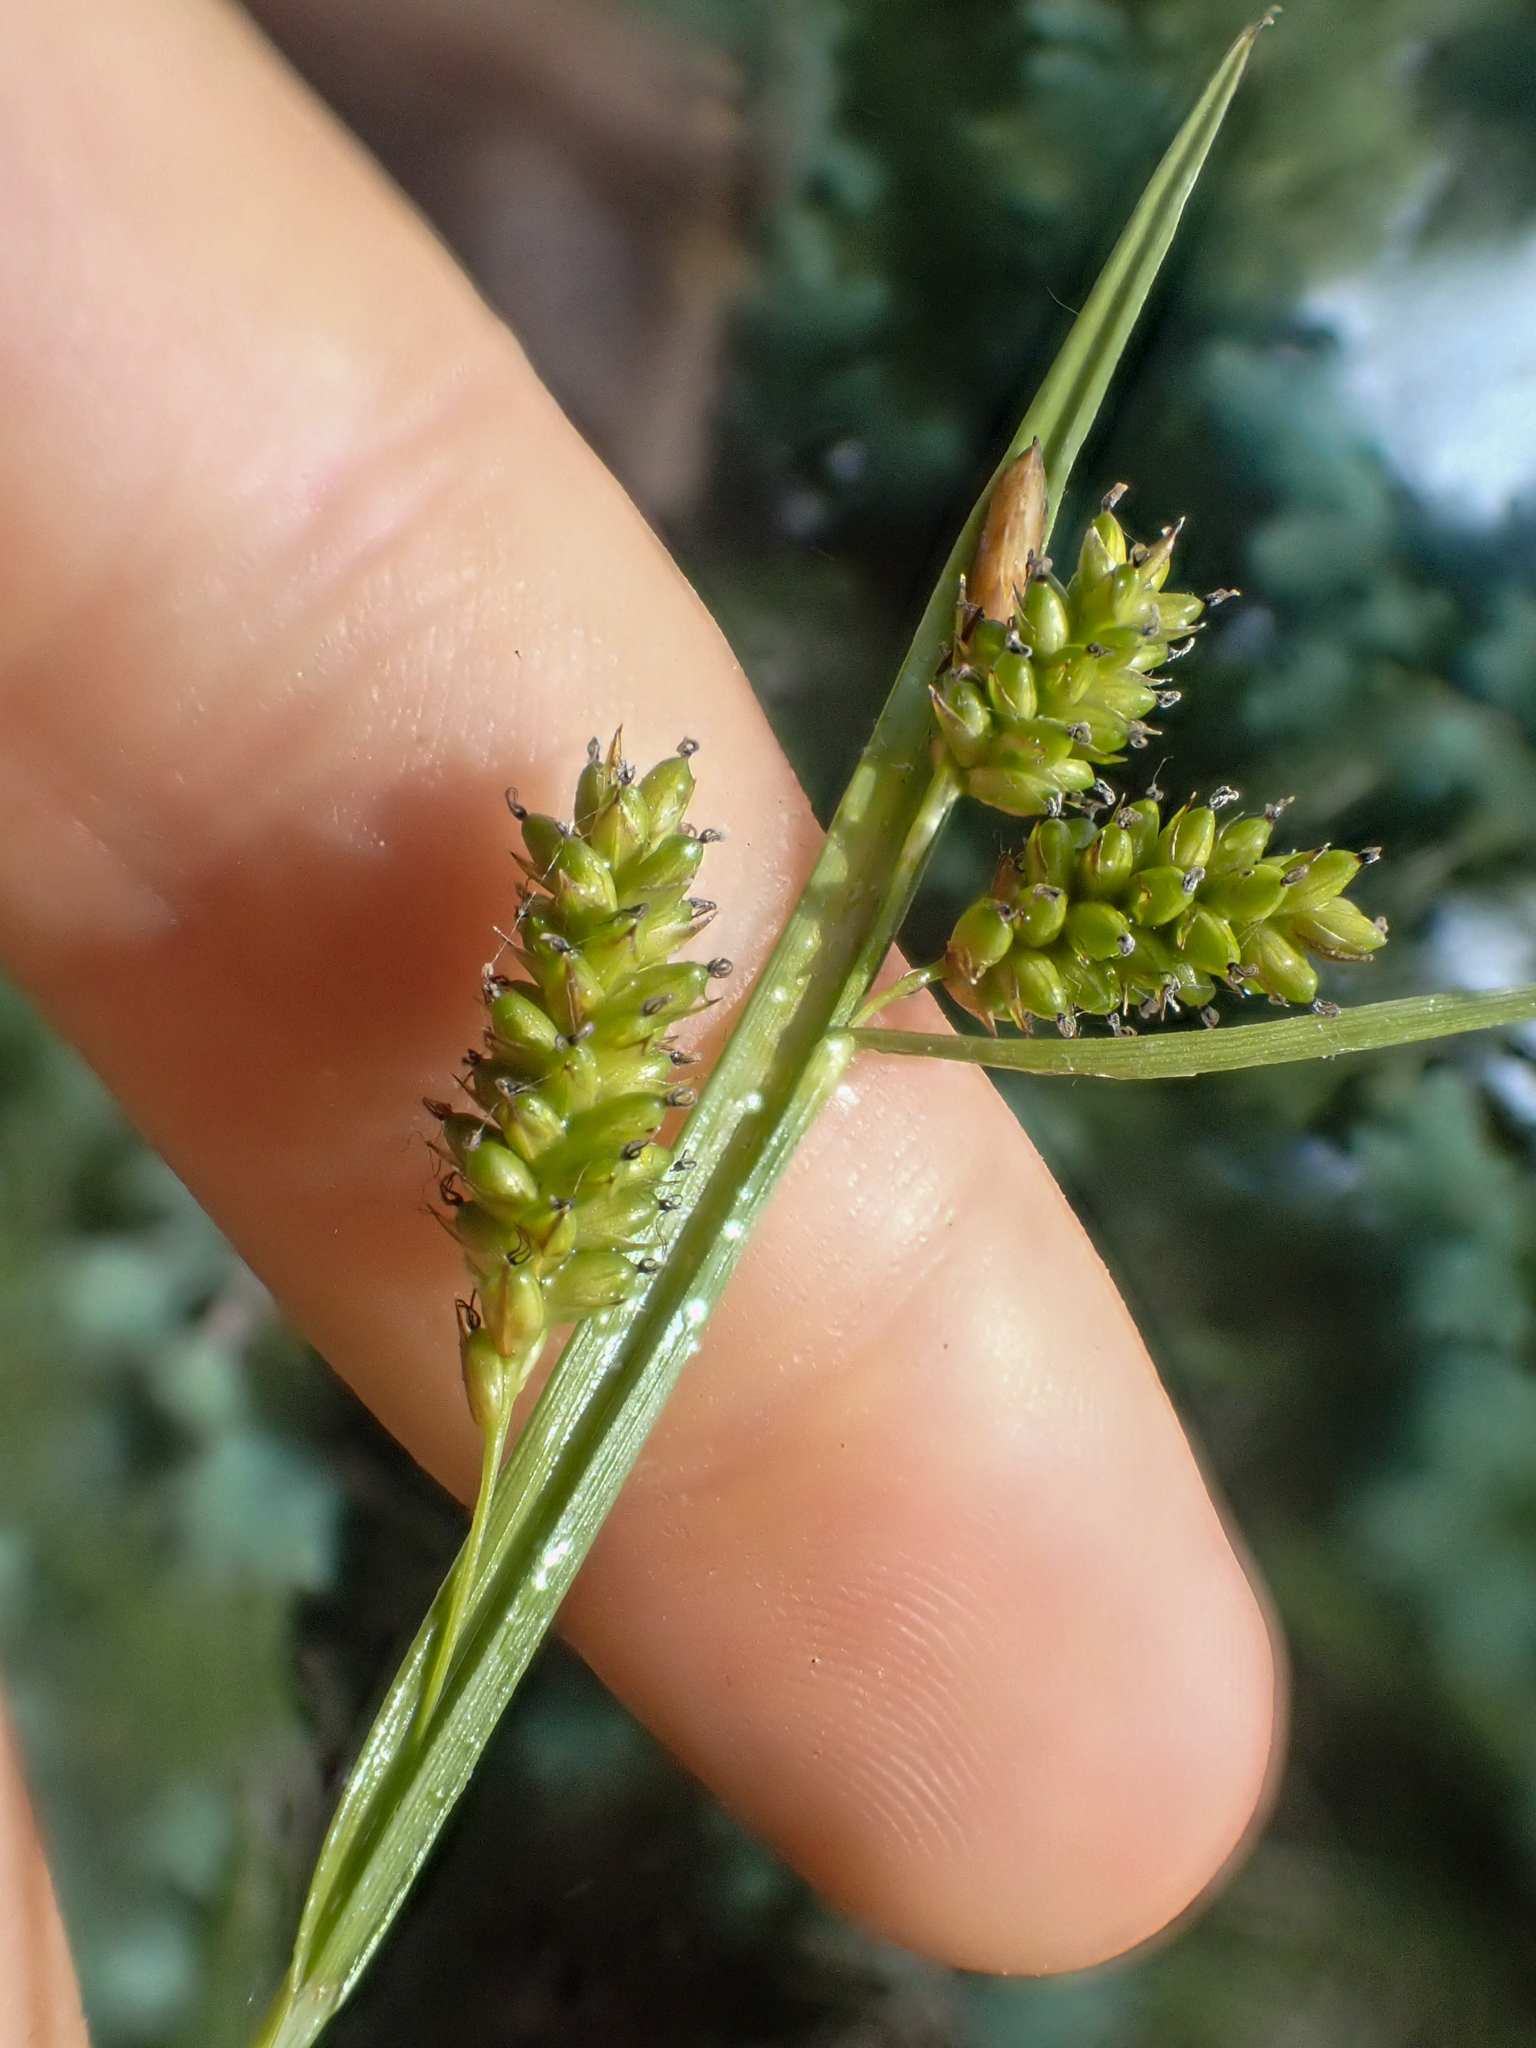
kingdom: Plantae
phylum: Tracheophyta
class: Liliopsida
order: Poales
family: Cyperaceae
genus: Carex
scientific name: Carex pallescens
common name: Pale sedge
